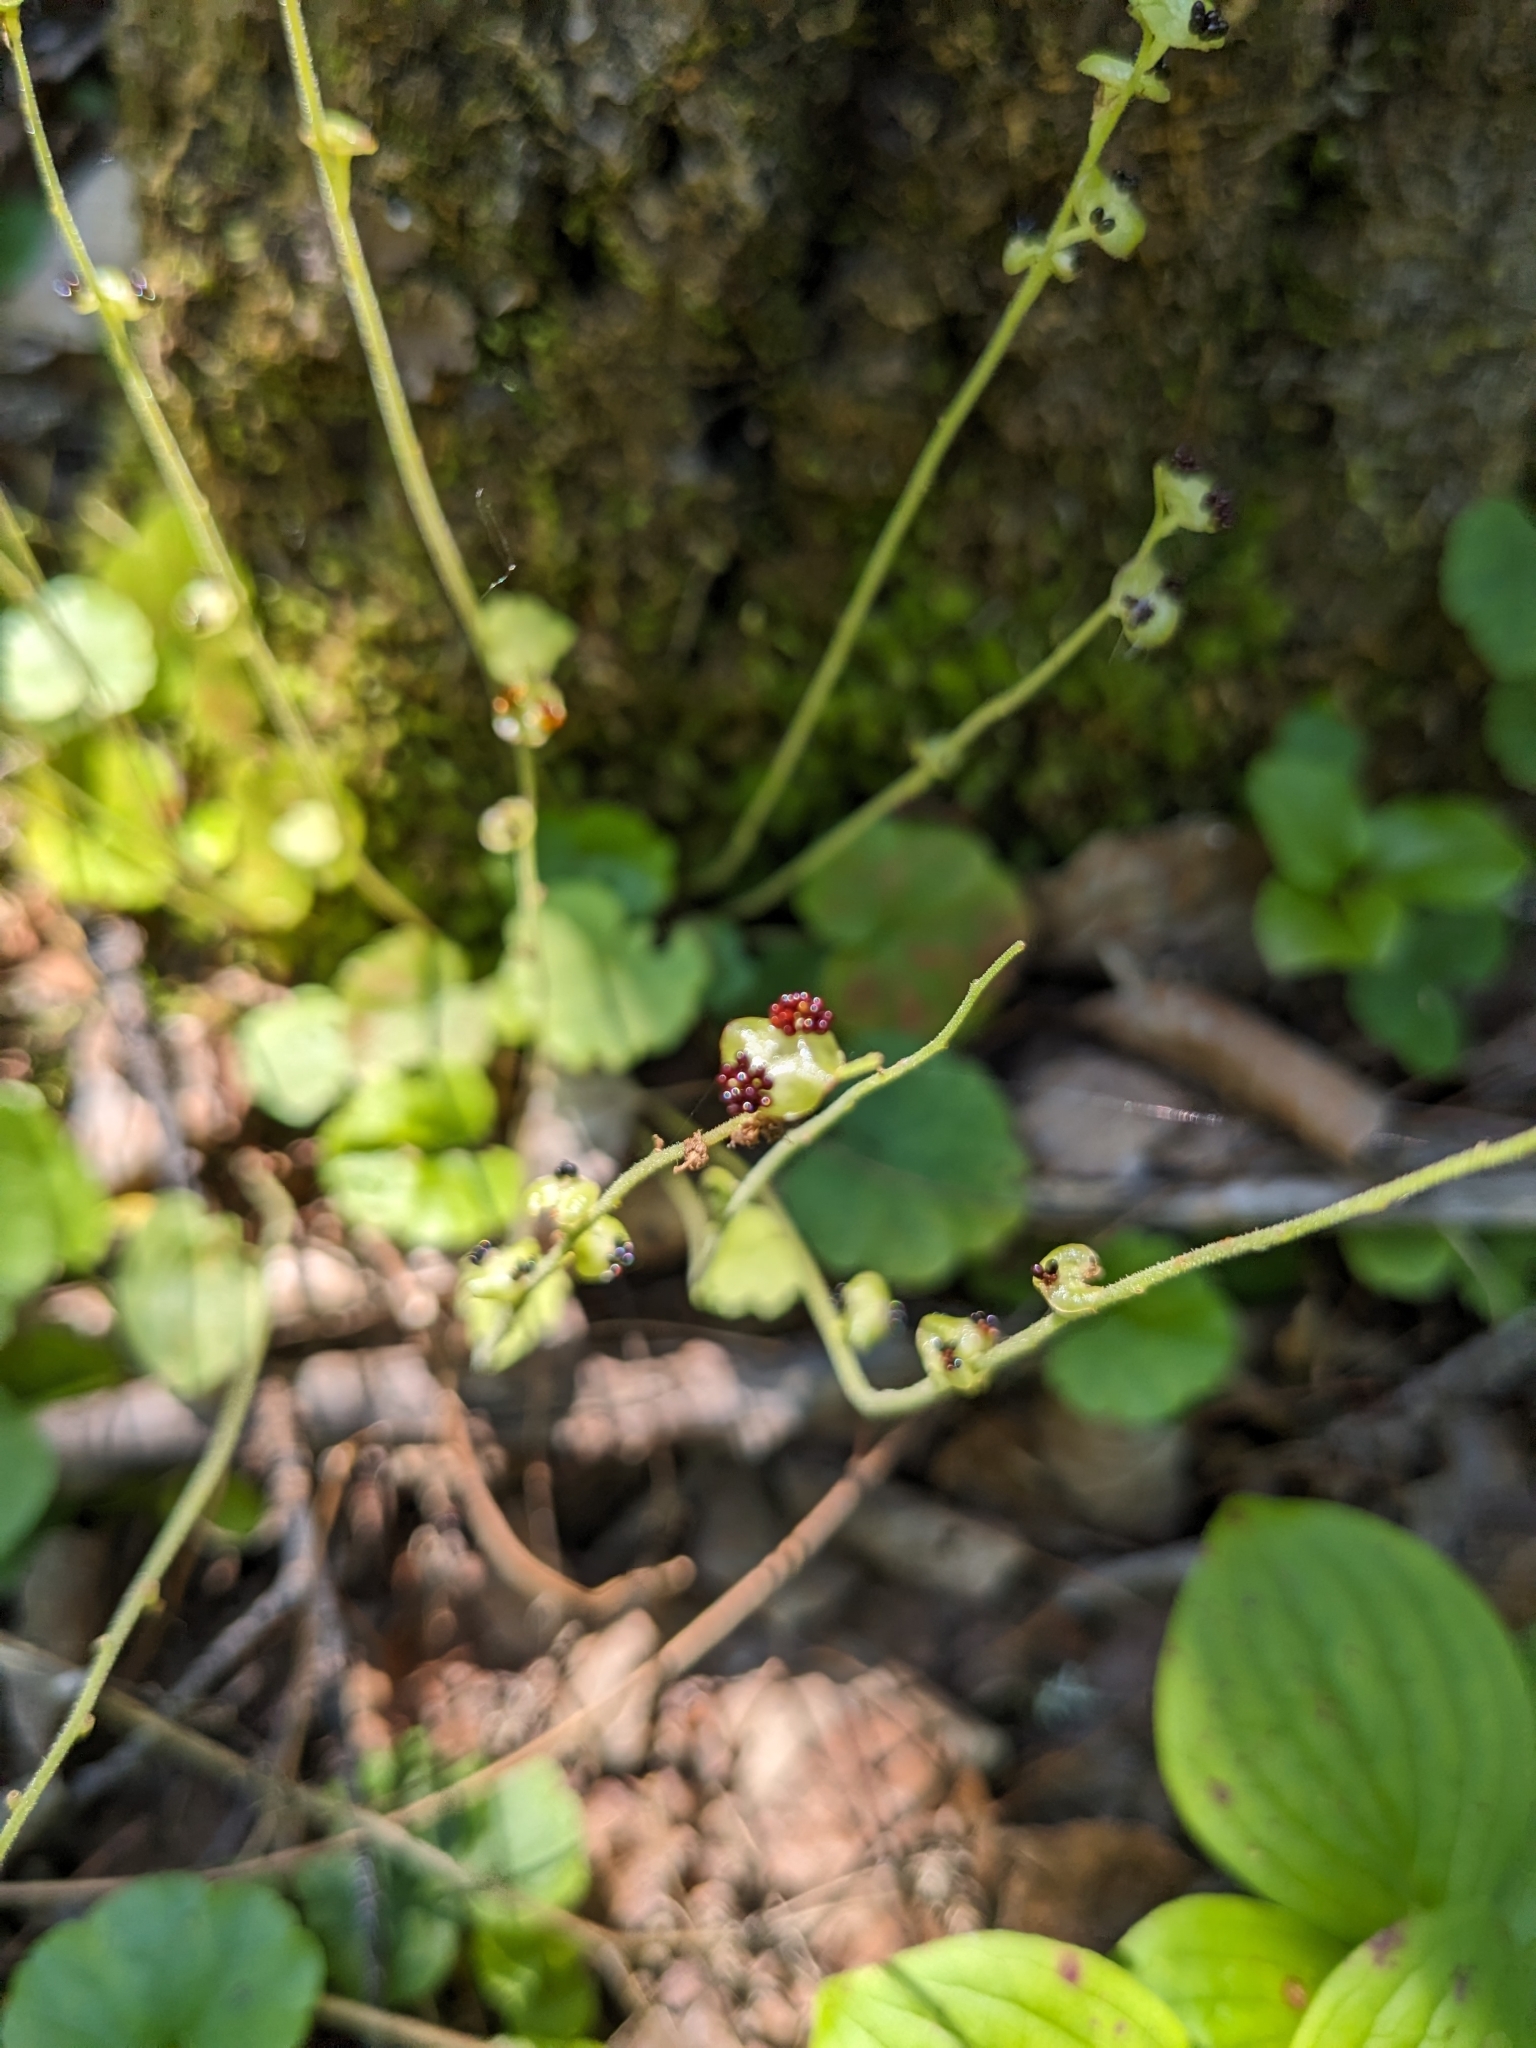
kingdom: Plantae
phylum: Tracheophyta
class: Magnoliopsida
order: Saxifragales
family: Saxifragaceae
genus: Mitella
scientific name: Mitella nuda
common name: Bare-stemmed bishop's-cap
